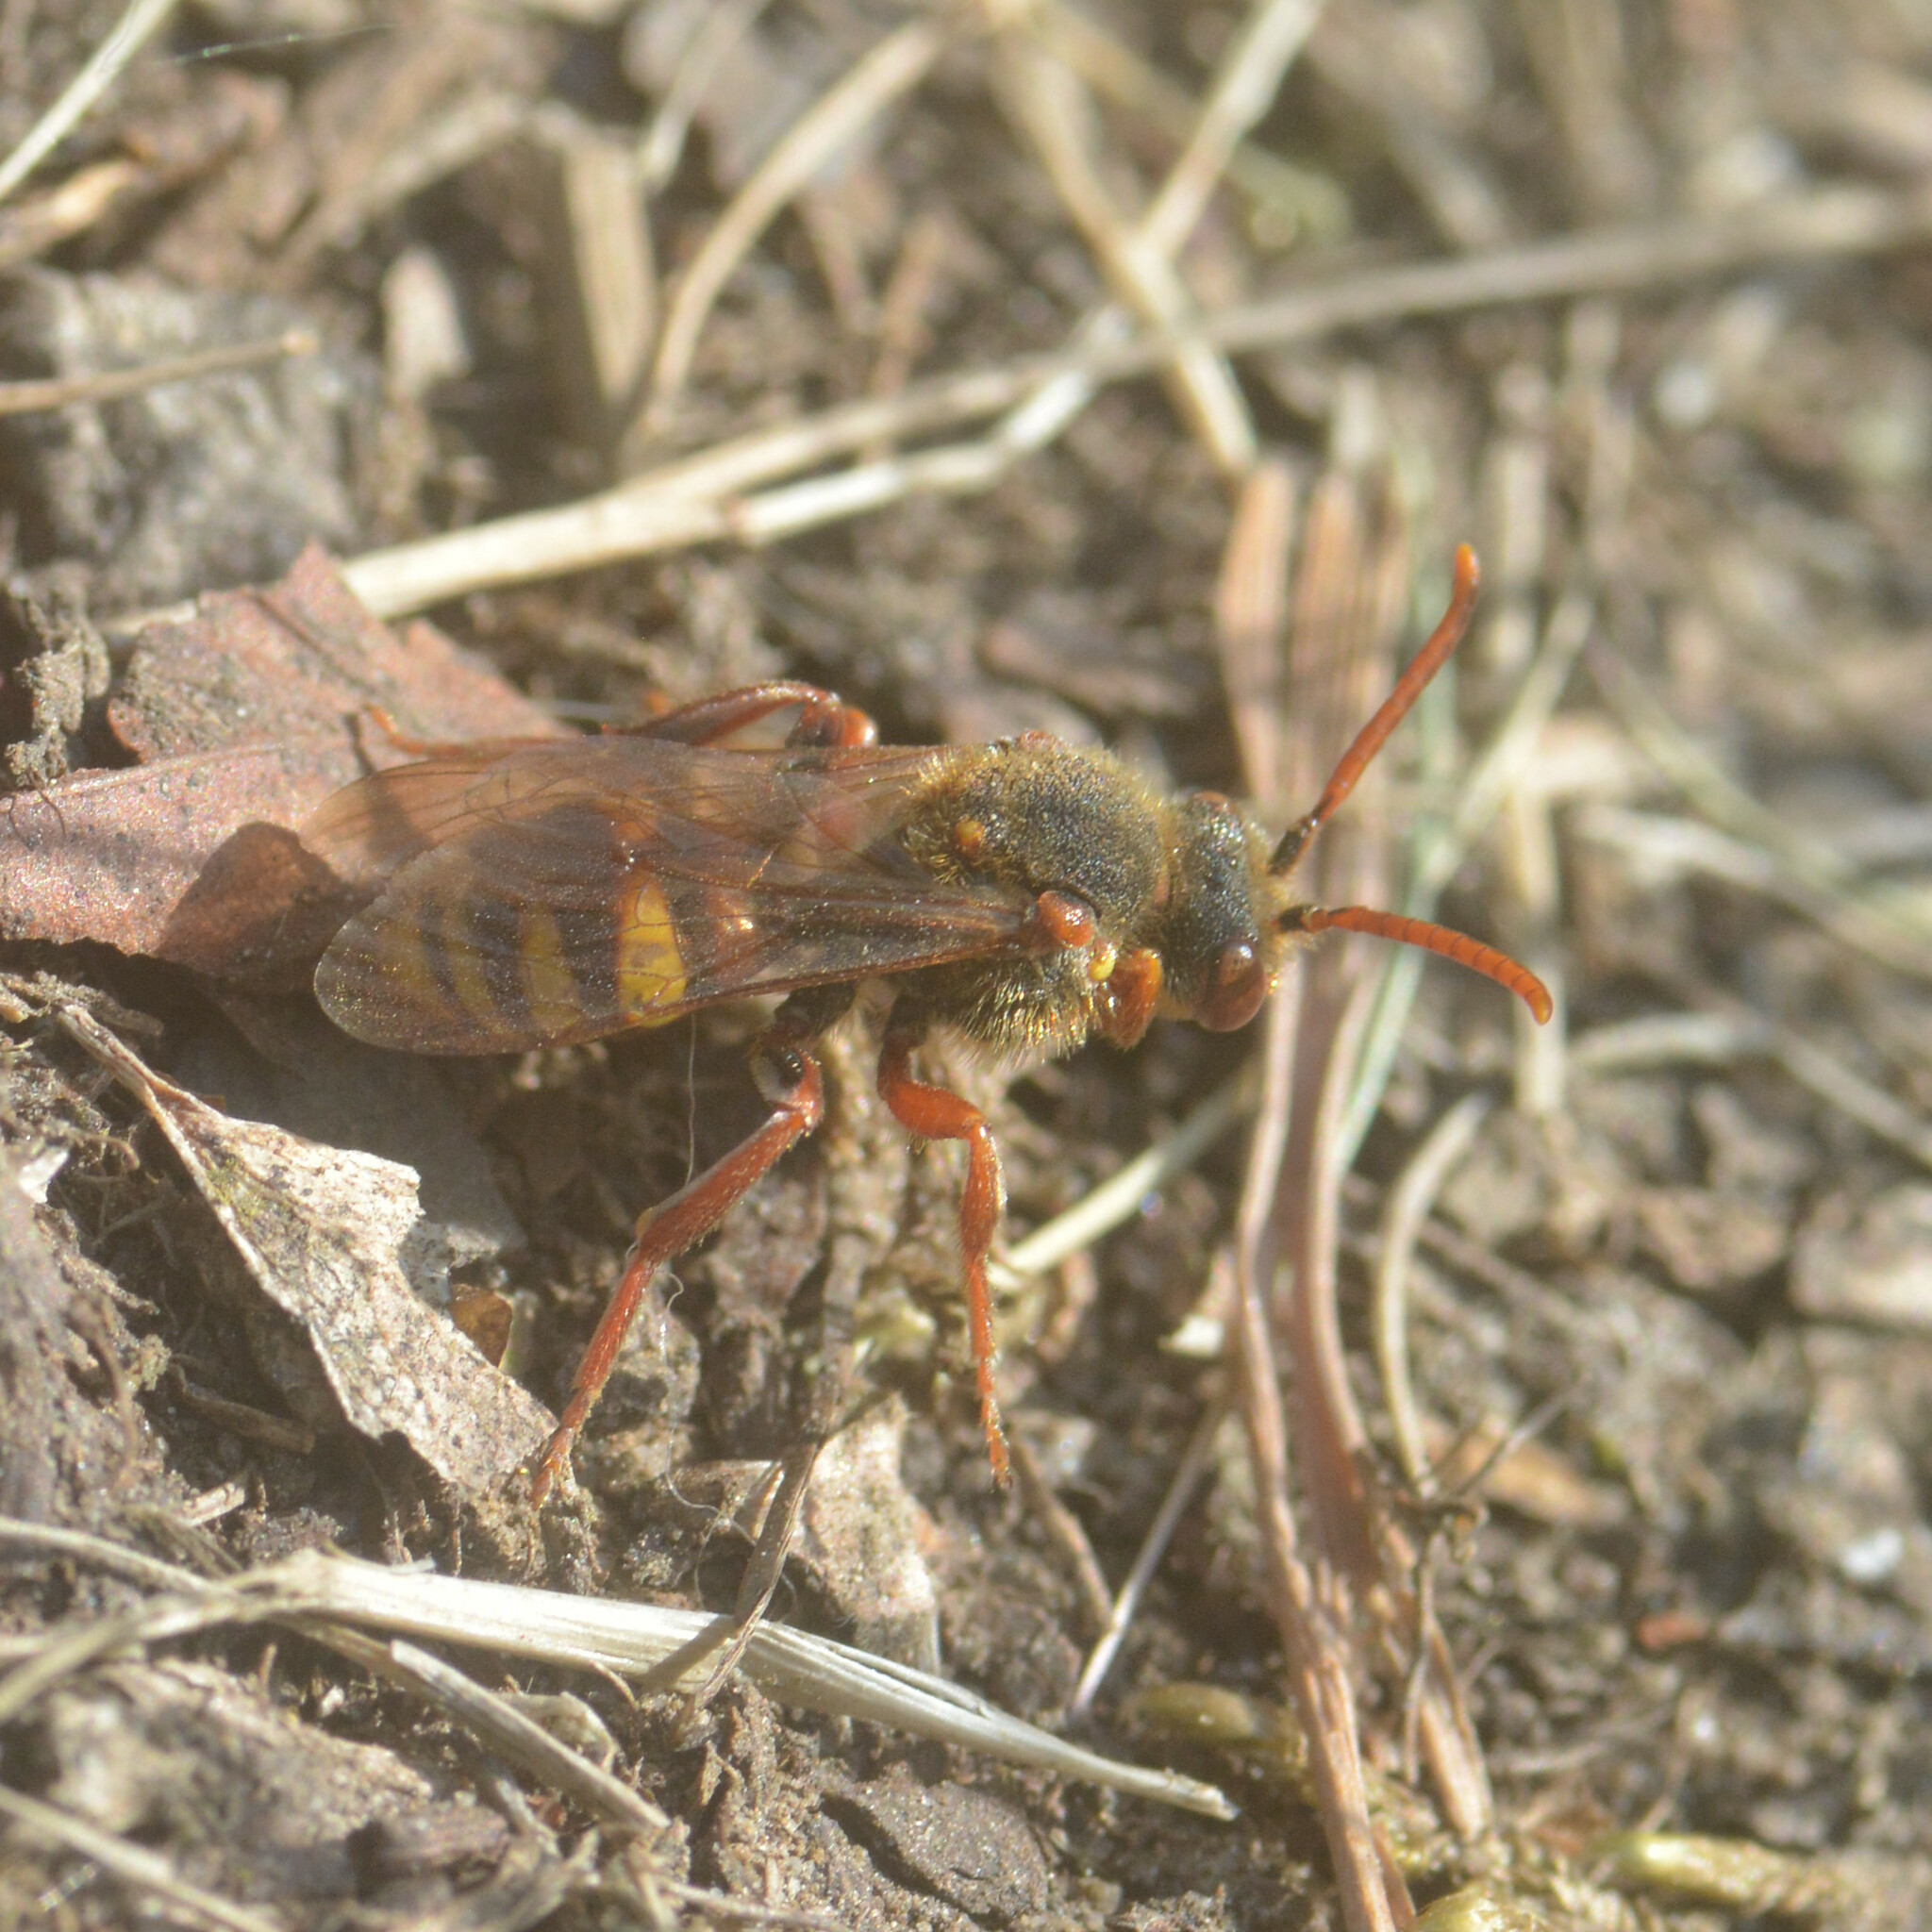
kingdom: Animalia
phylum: Arthropoda
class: Insecta
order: Hymenoptera
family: Apidae
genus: Nomada
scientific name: Nomada lathburiana
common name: Lathbury's nomad bee
